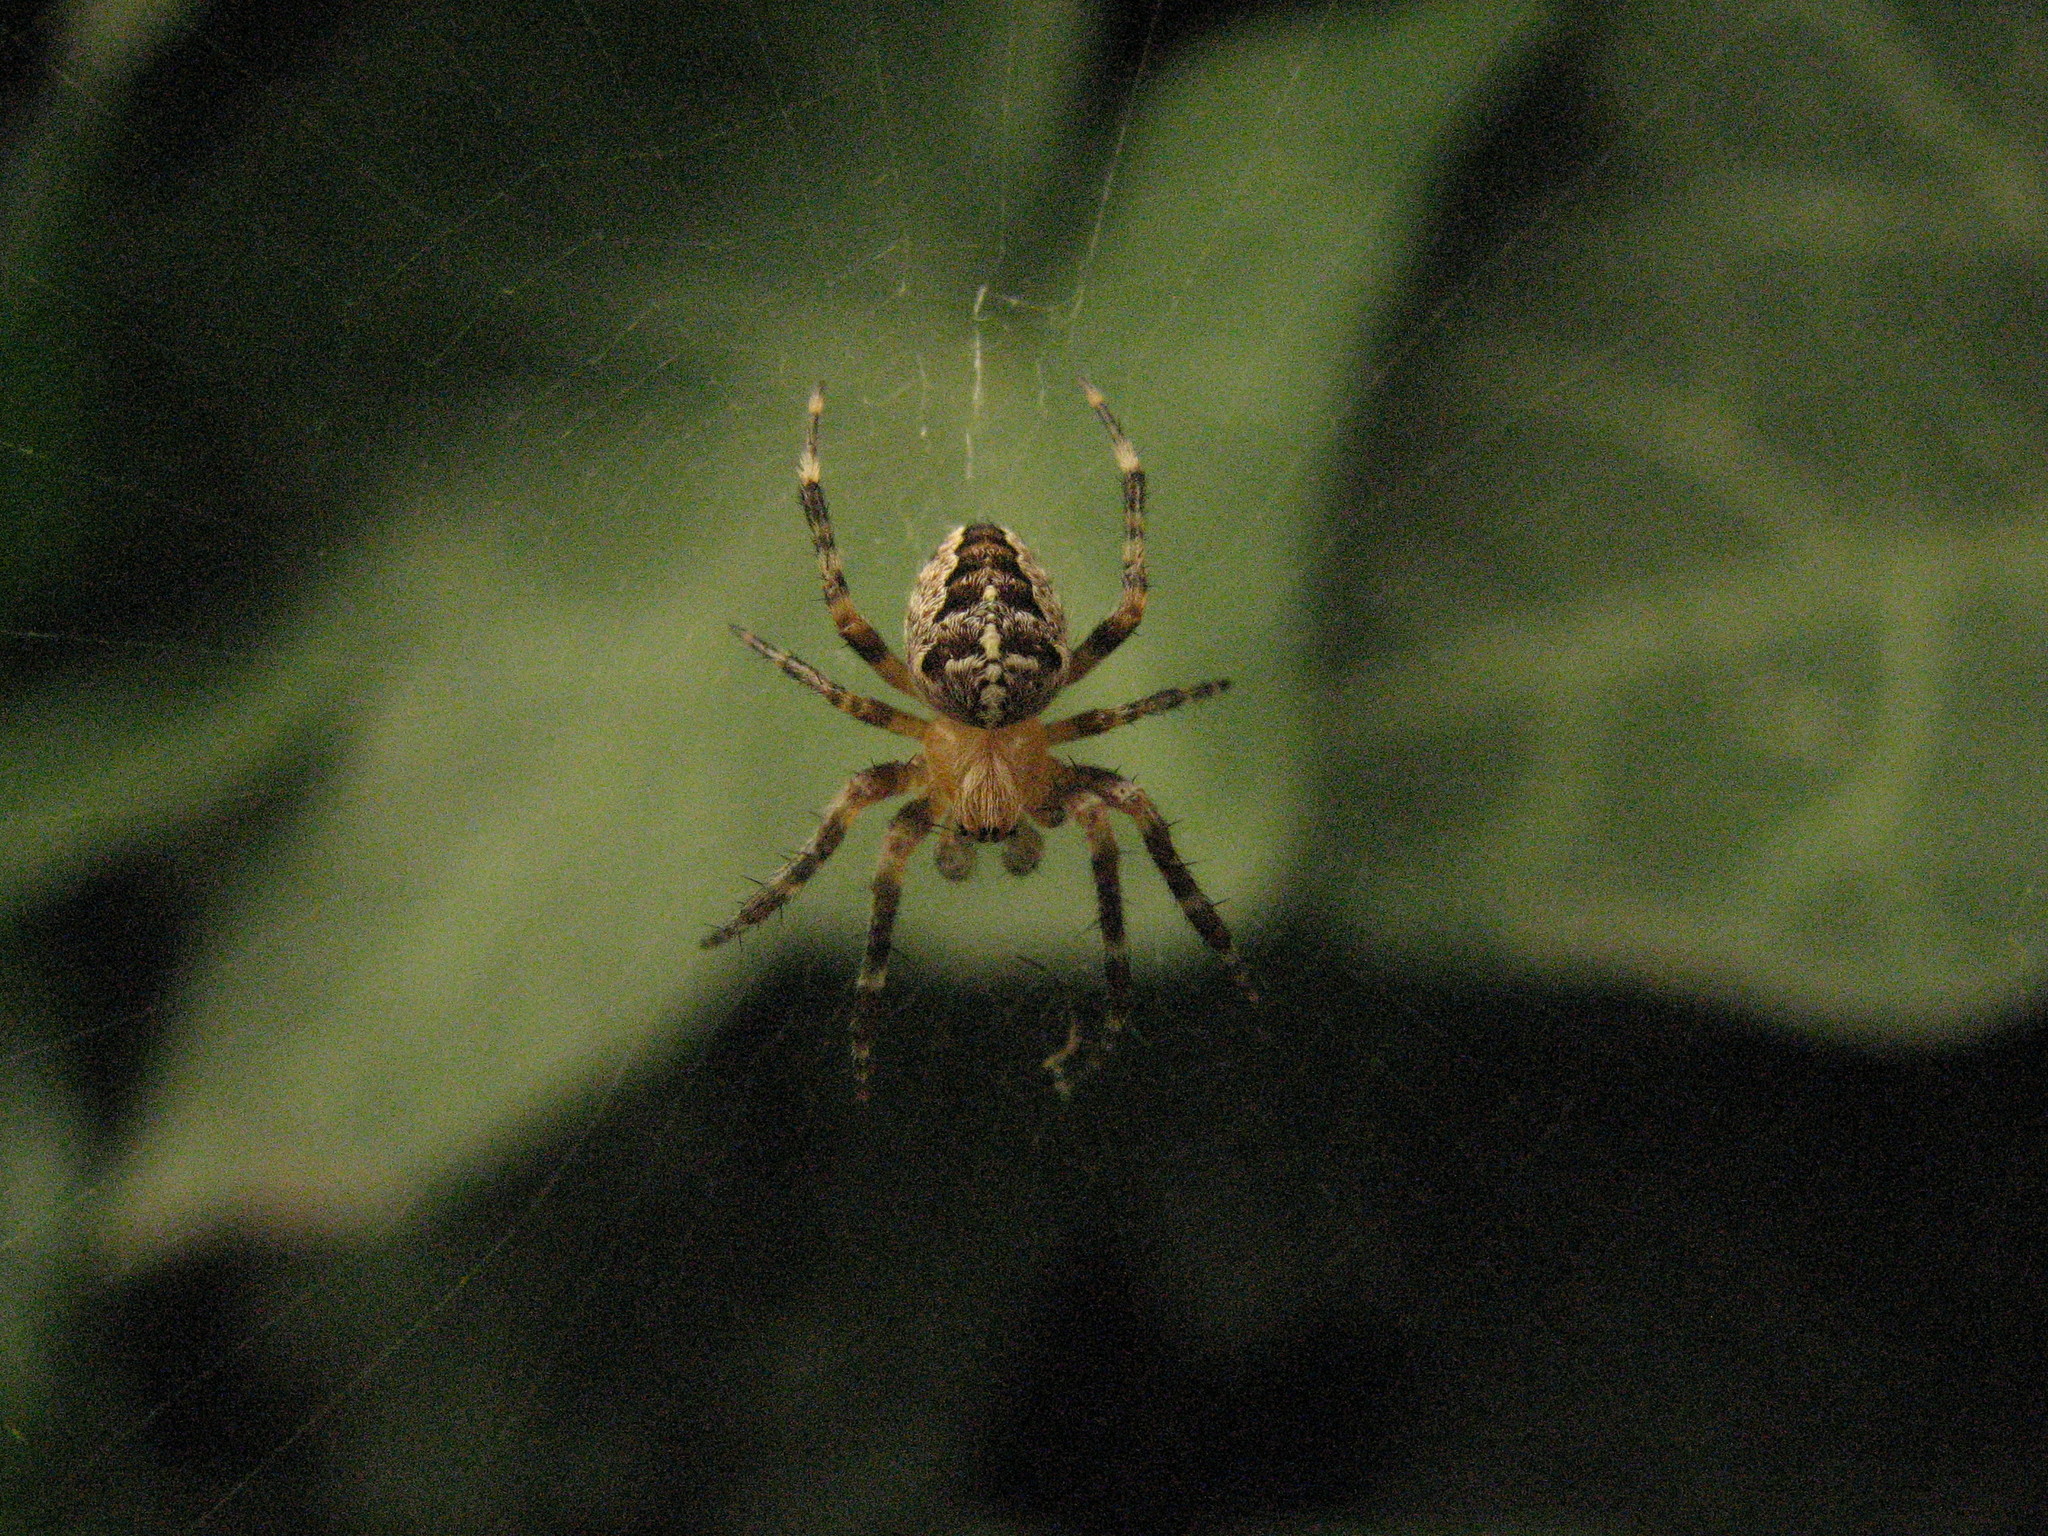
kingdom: Animalia
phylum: Arthropoda
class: Arachnida
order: Araneae
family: Araneidae
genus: Araneus
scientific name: Araneus diadematus
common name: Cross orbweaver
